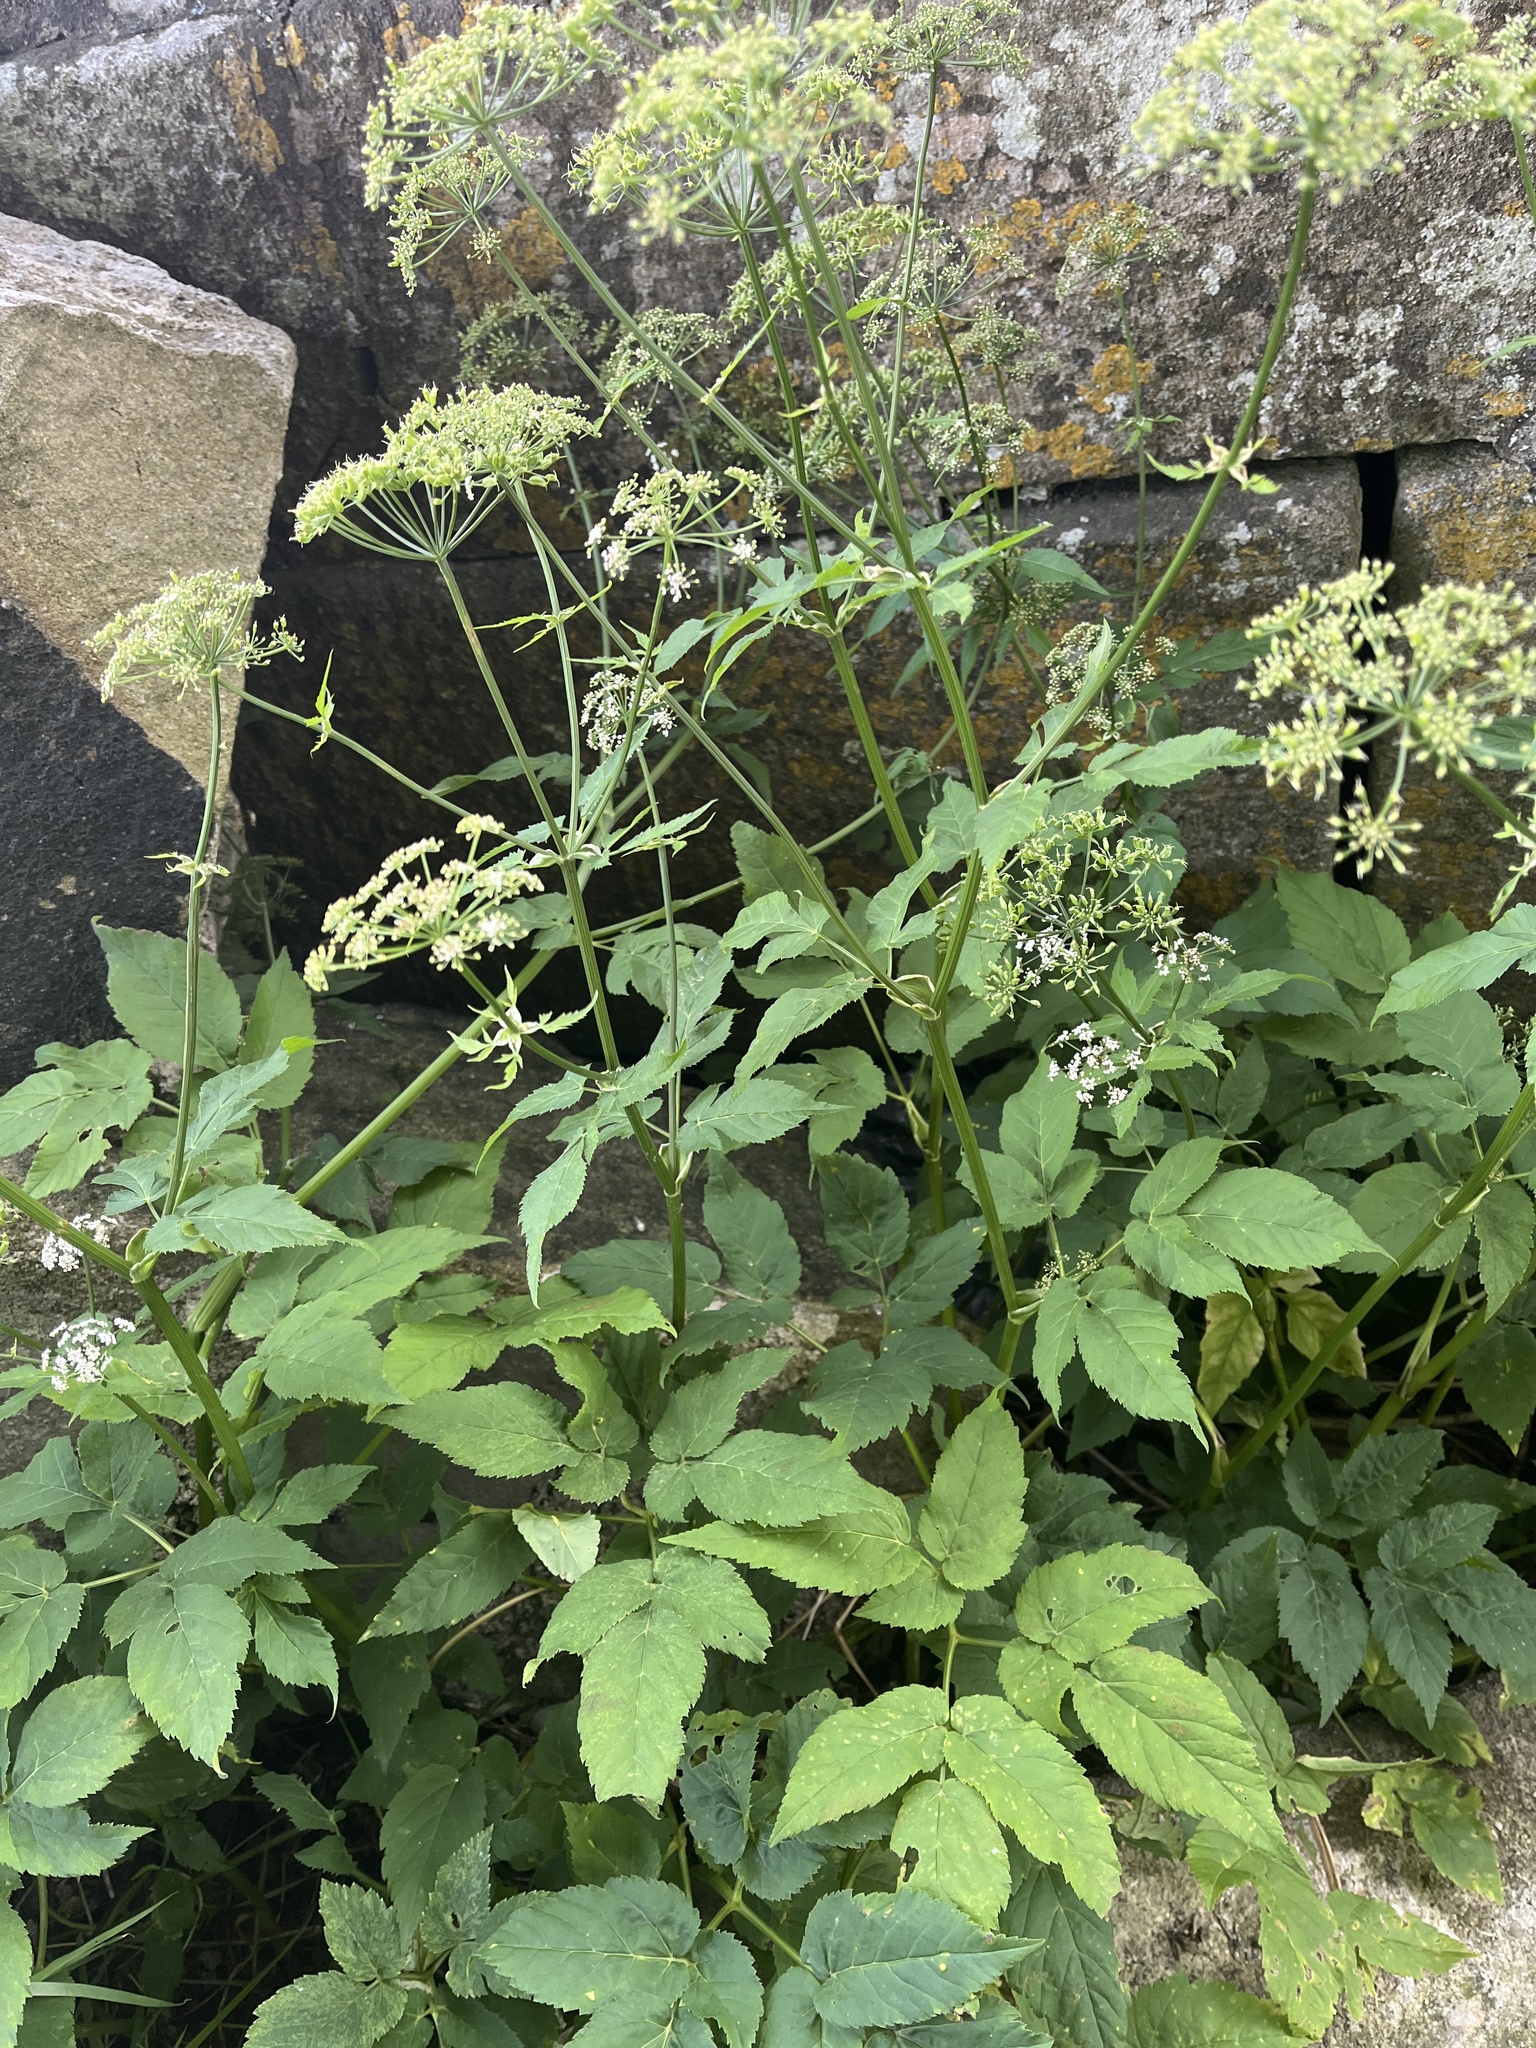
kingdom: Plantae
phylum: Tracheophyta
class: Magnoliopsida
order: Apiales
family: Apiaceae
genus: Aegopodium
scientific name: Aegopodium podagraria
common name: Ground-elder
